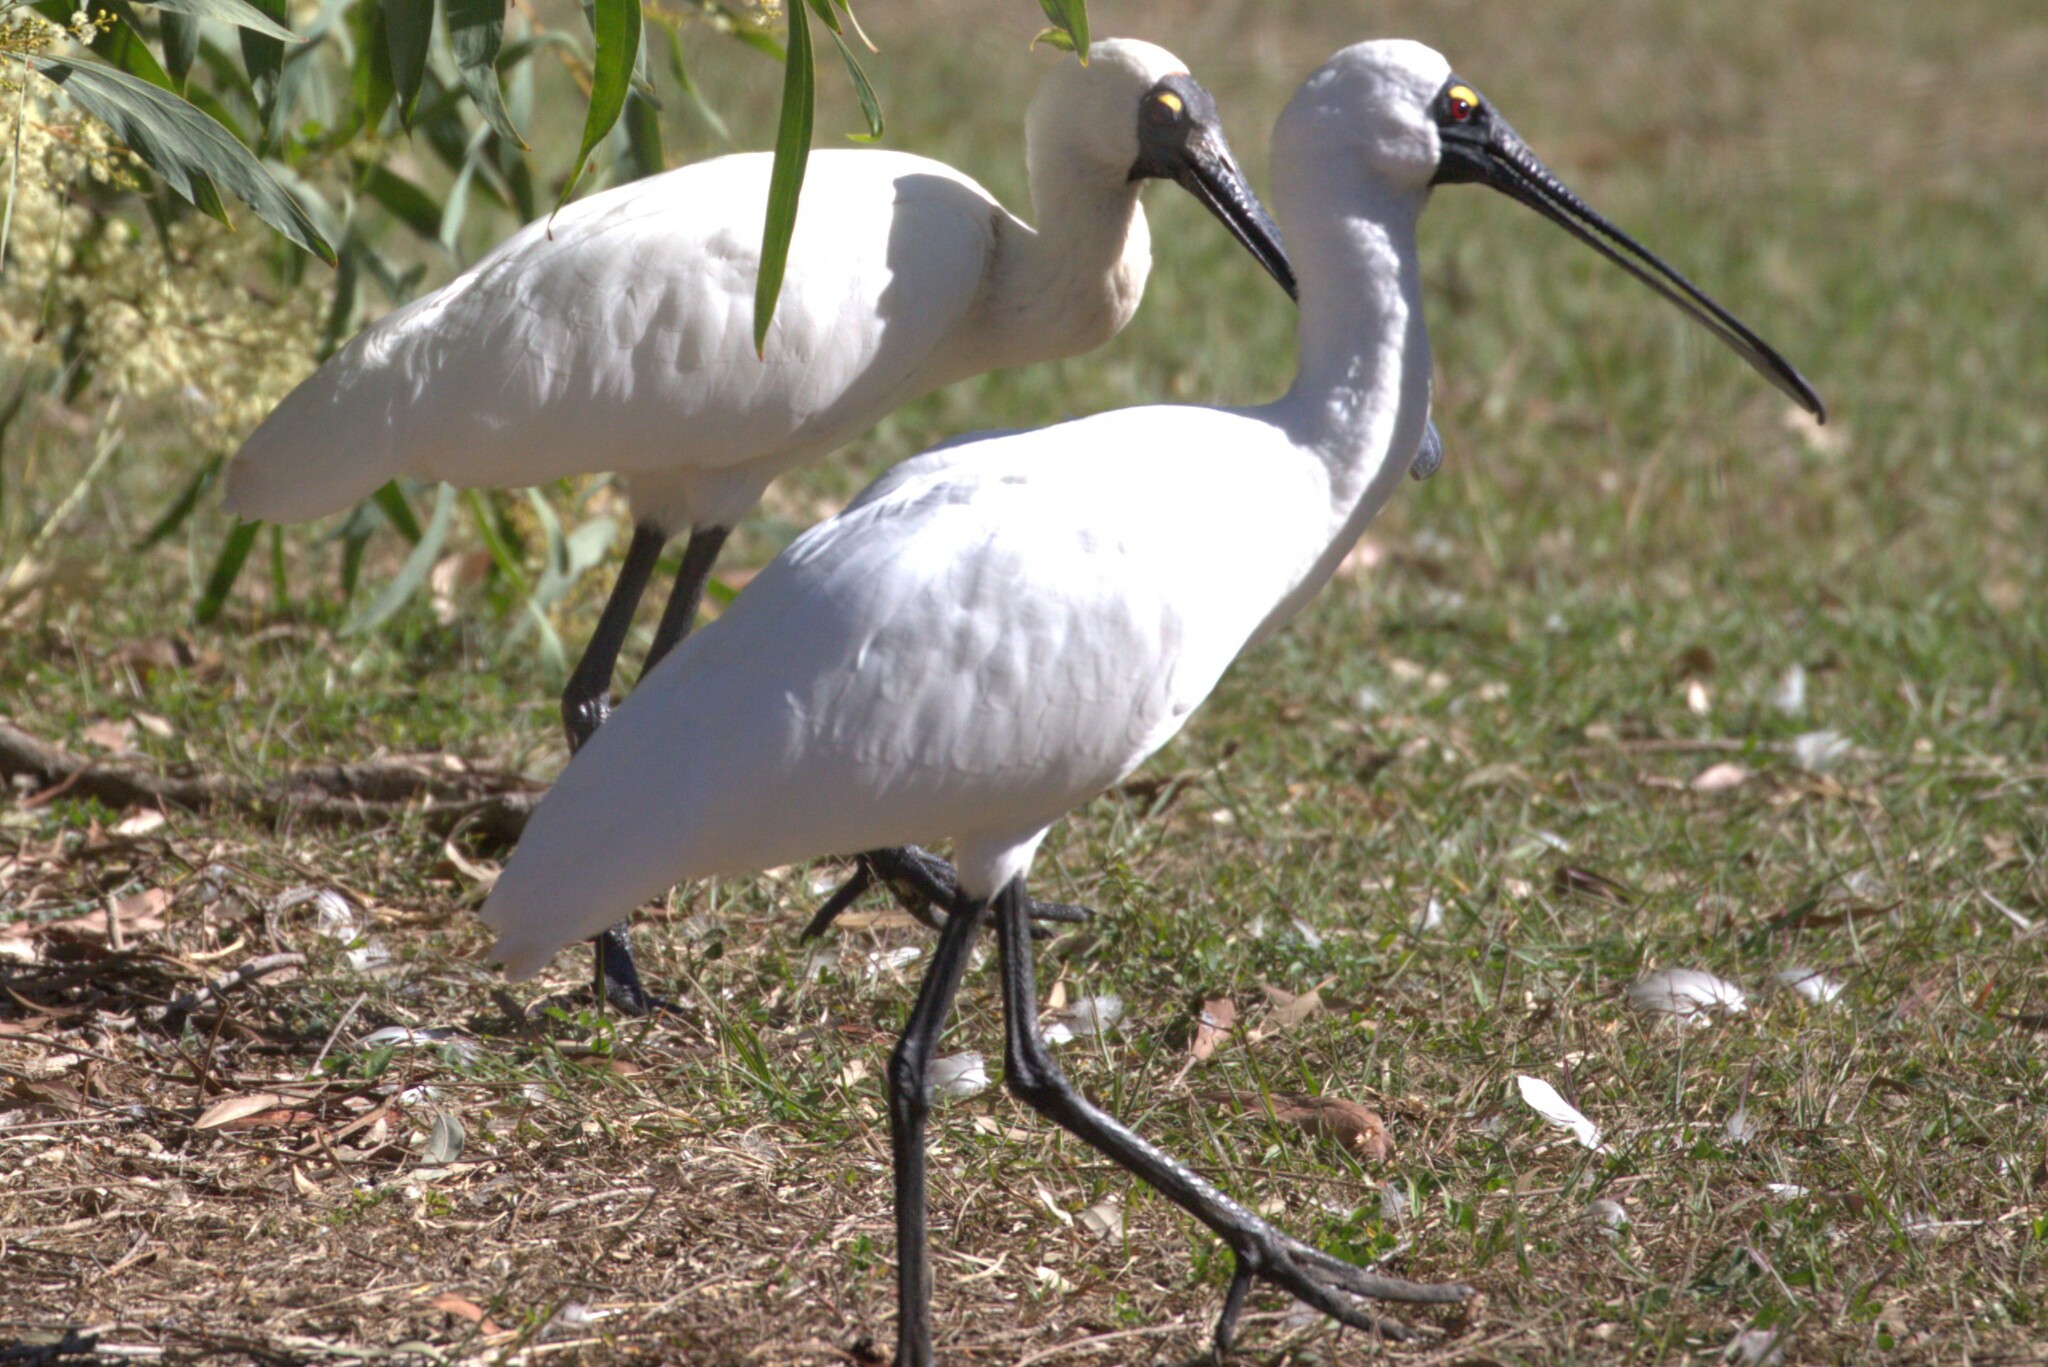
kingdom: Animalia
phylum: Chordata
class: Aves
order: Pelecaniformes
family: Threskiornithidae
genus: Platalea
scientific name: Platalea regia
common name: Royal spoonbill
